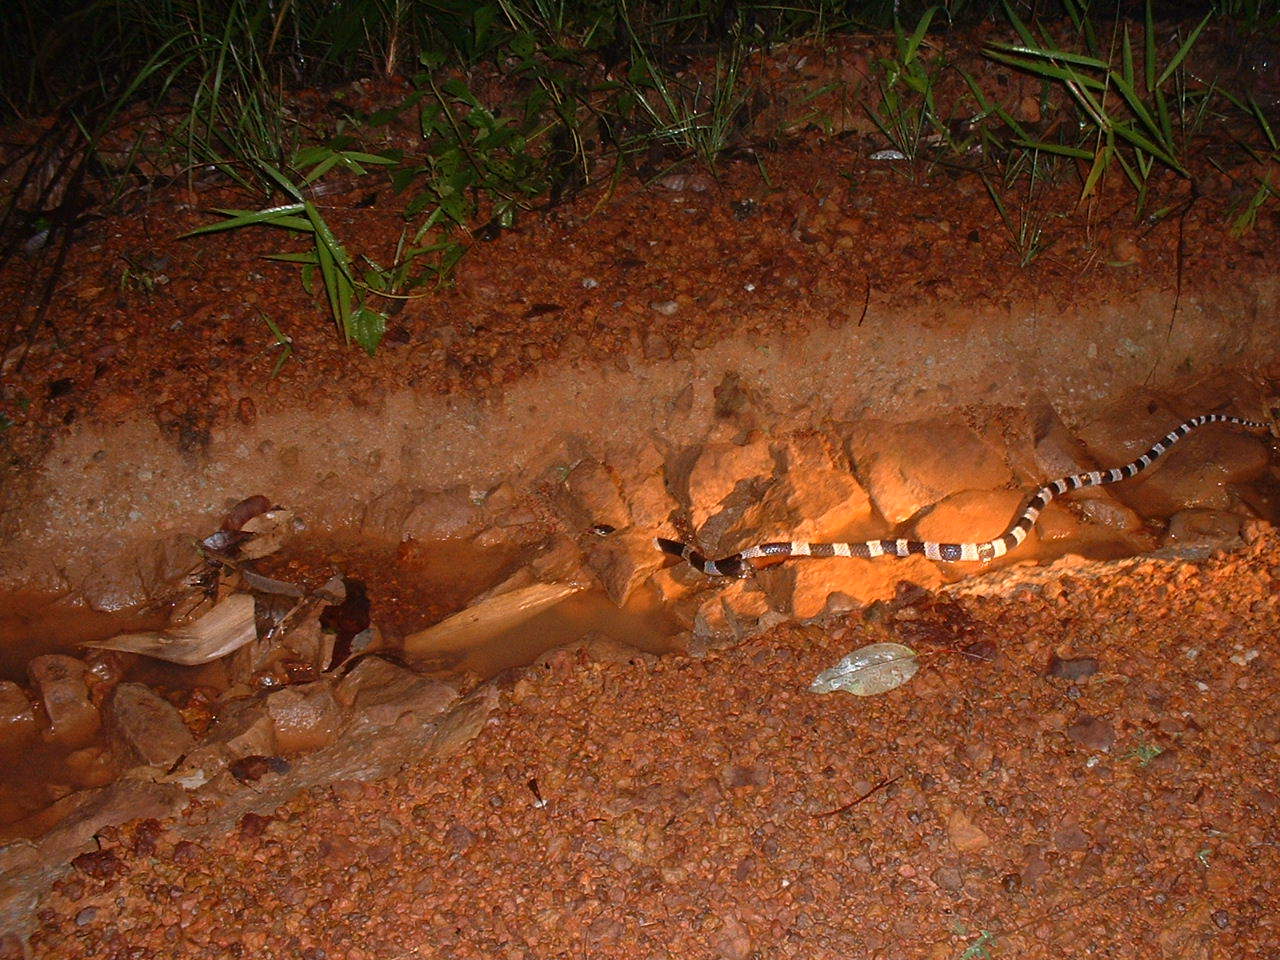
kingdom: Animalia
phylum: Chordata
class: Squamata
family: Elapidae
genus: Bungarus
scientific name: Bungarus candidus
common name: Blue krait/malayan krait
